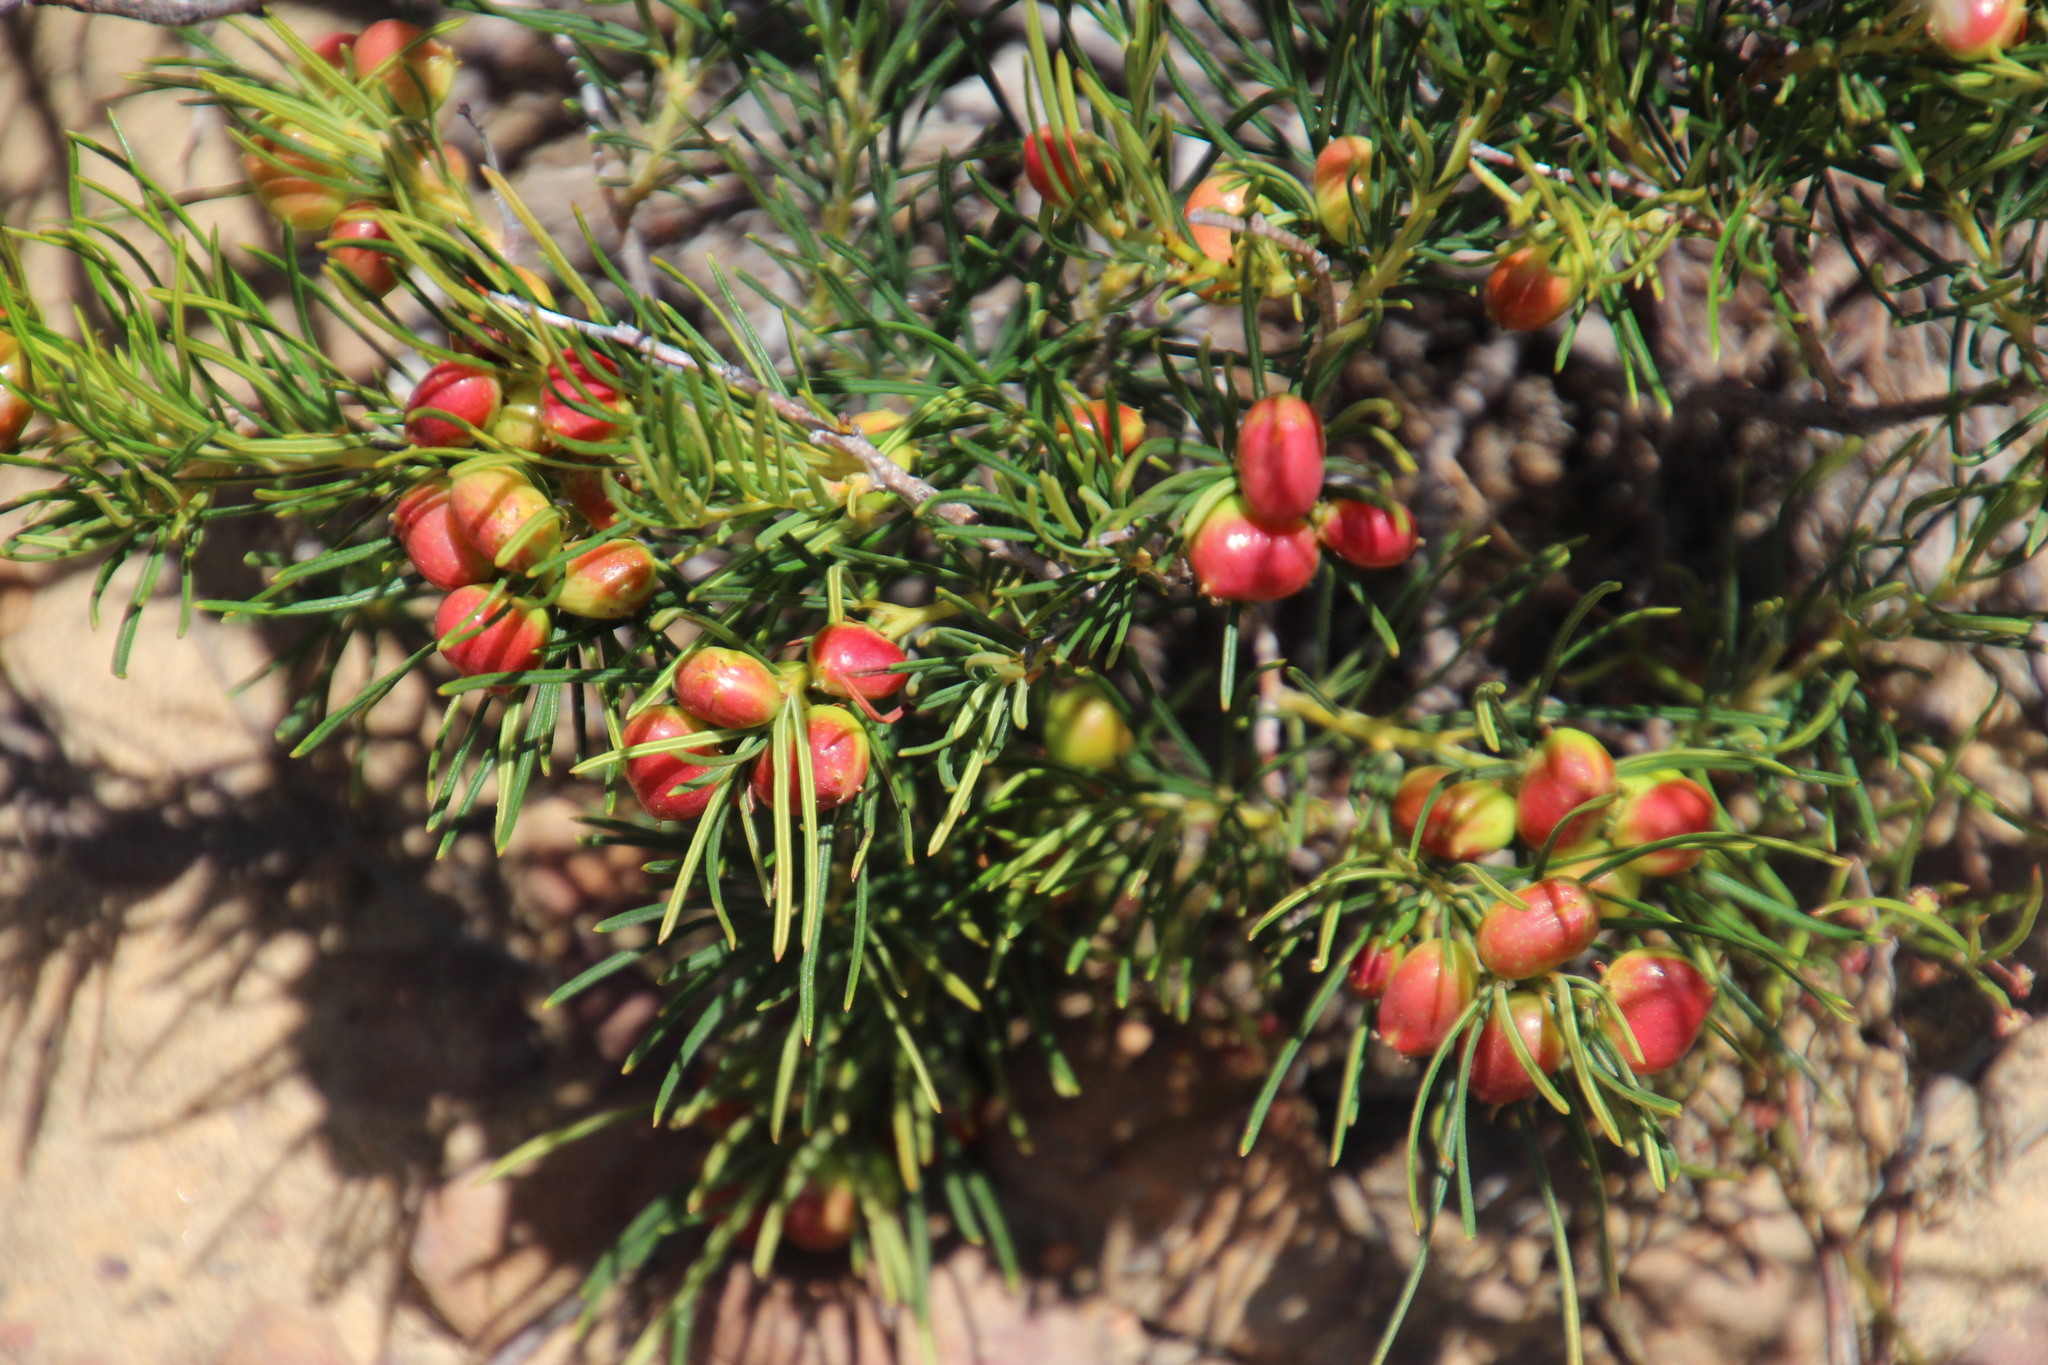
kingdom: Plantae
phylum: Tracheophyta
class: Magnoliopsida
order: Sapindales
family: Anacardiaceae
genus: Searsia
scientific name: Searsia rosmarinifolia
